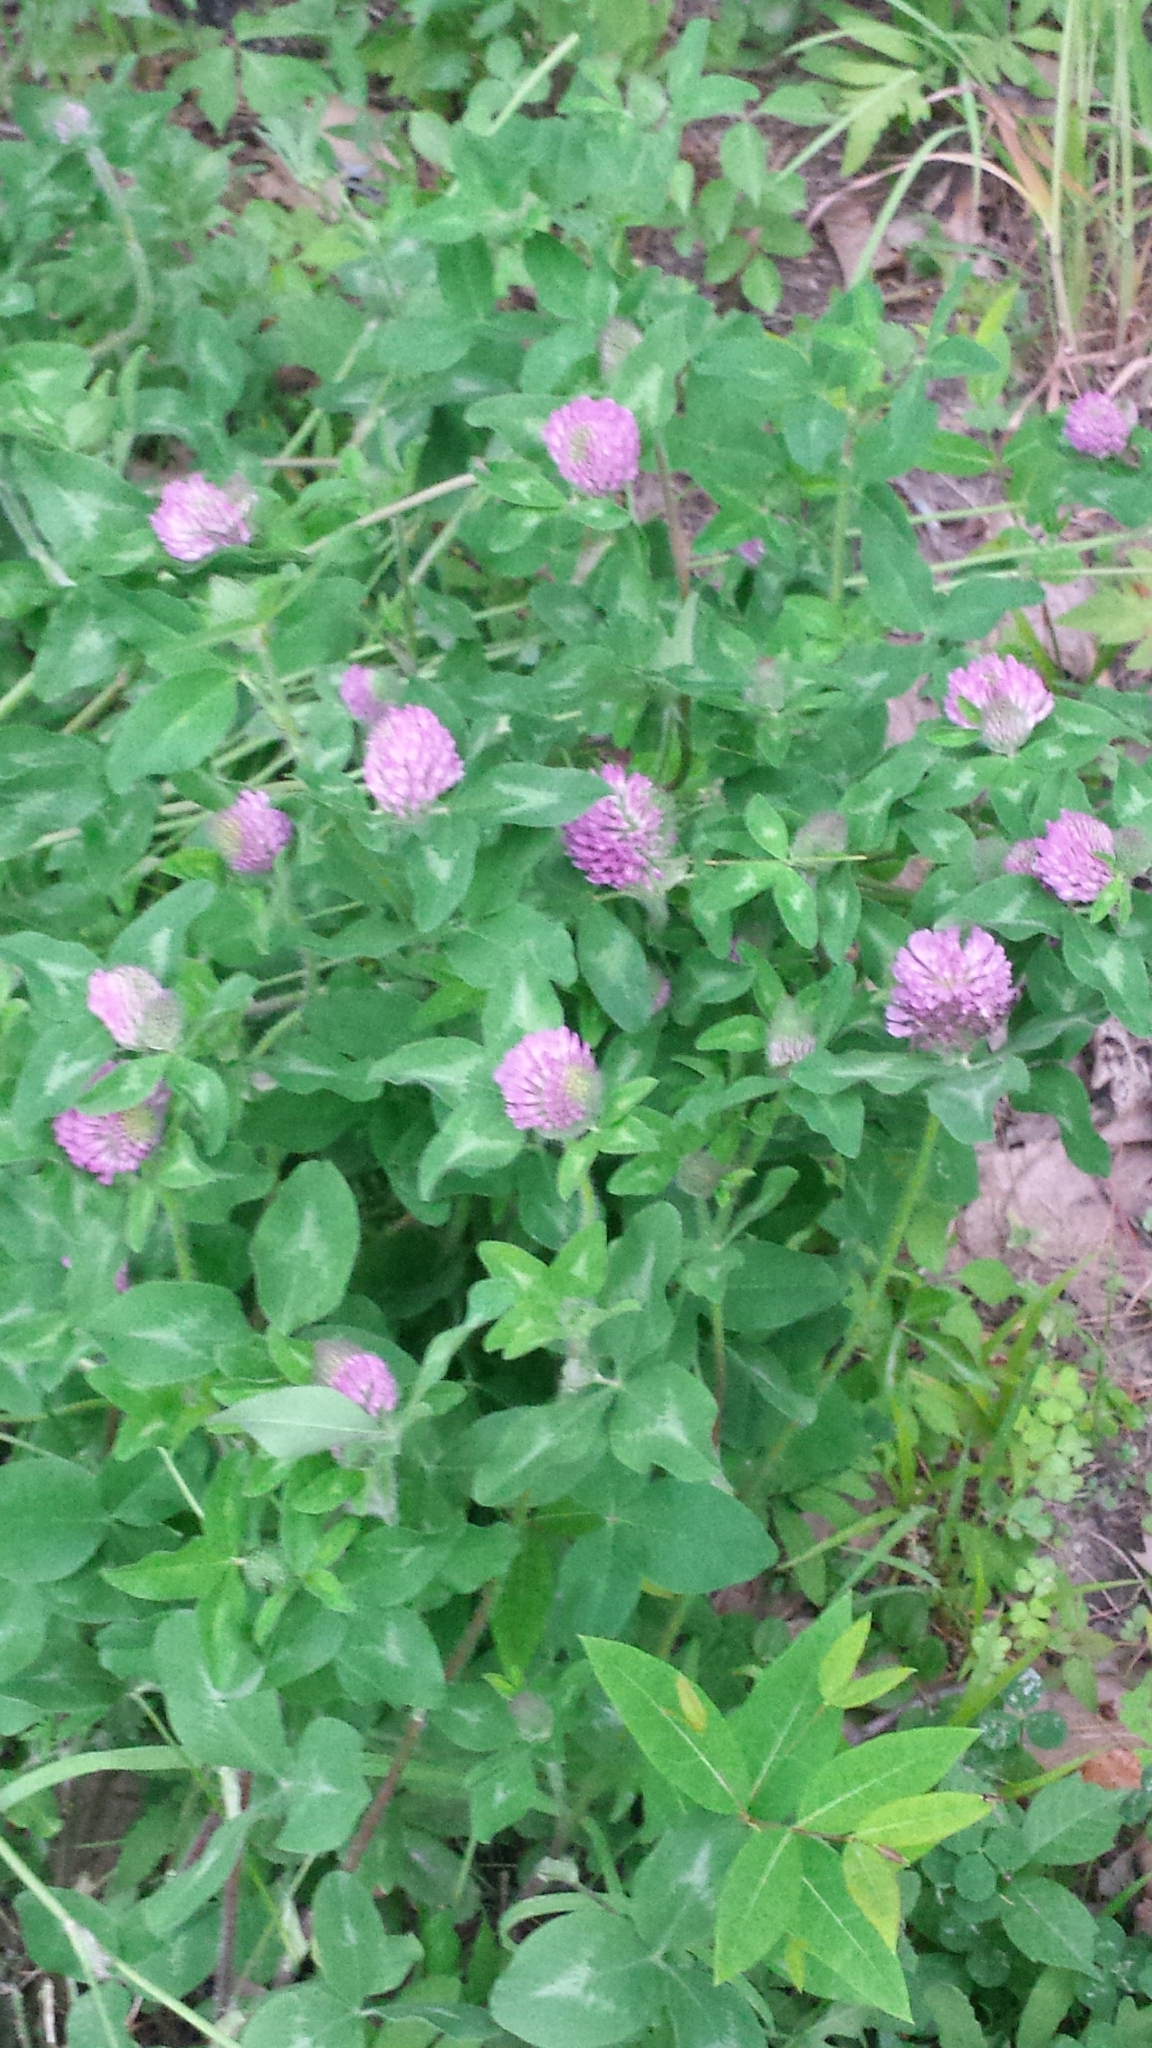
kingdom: Plantae
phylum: Tracheophyta
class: Magnoliopsida
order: Fabales
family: Fabaceae
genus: Trifolium
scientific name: Trifolium pratense
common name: Red clover
